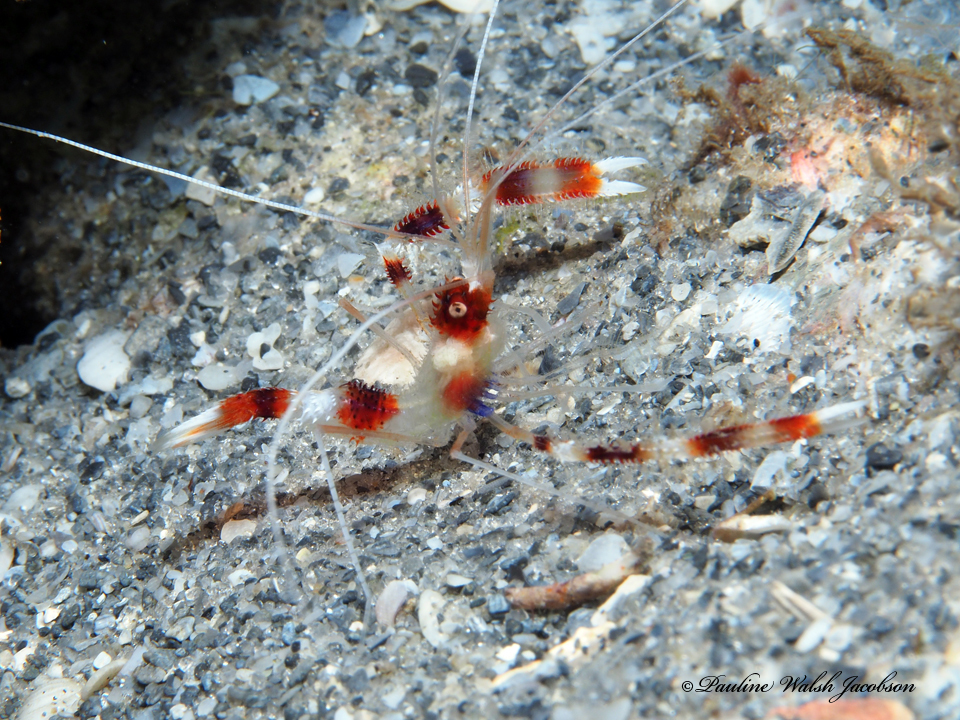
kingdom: Animalia
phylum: Arthropoda
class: Malacostraca
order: Decapoda
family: Stenopodidae
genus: Stenopus
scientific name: Stenopus hispidus
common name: Banded coral shrimp
